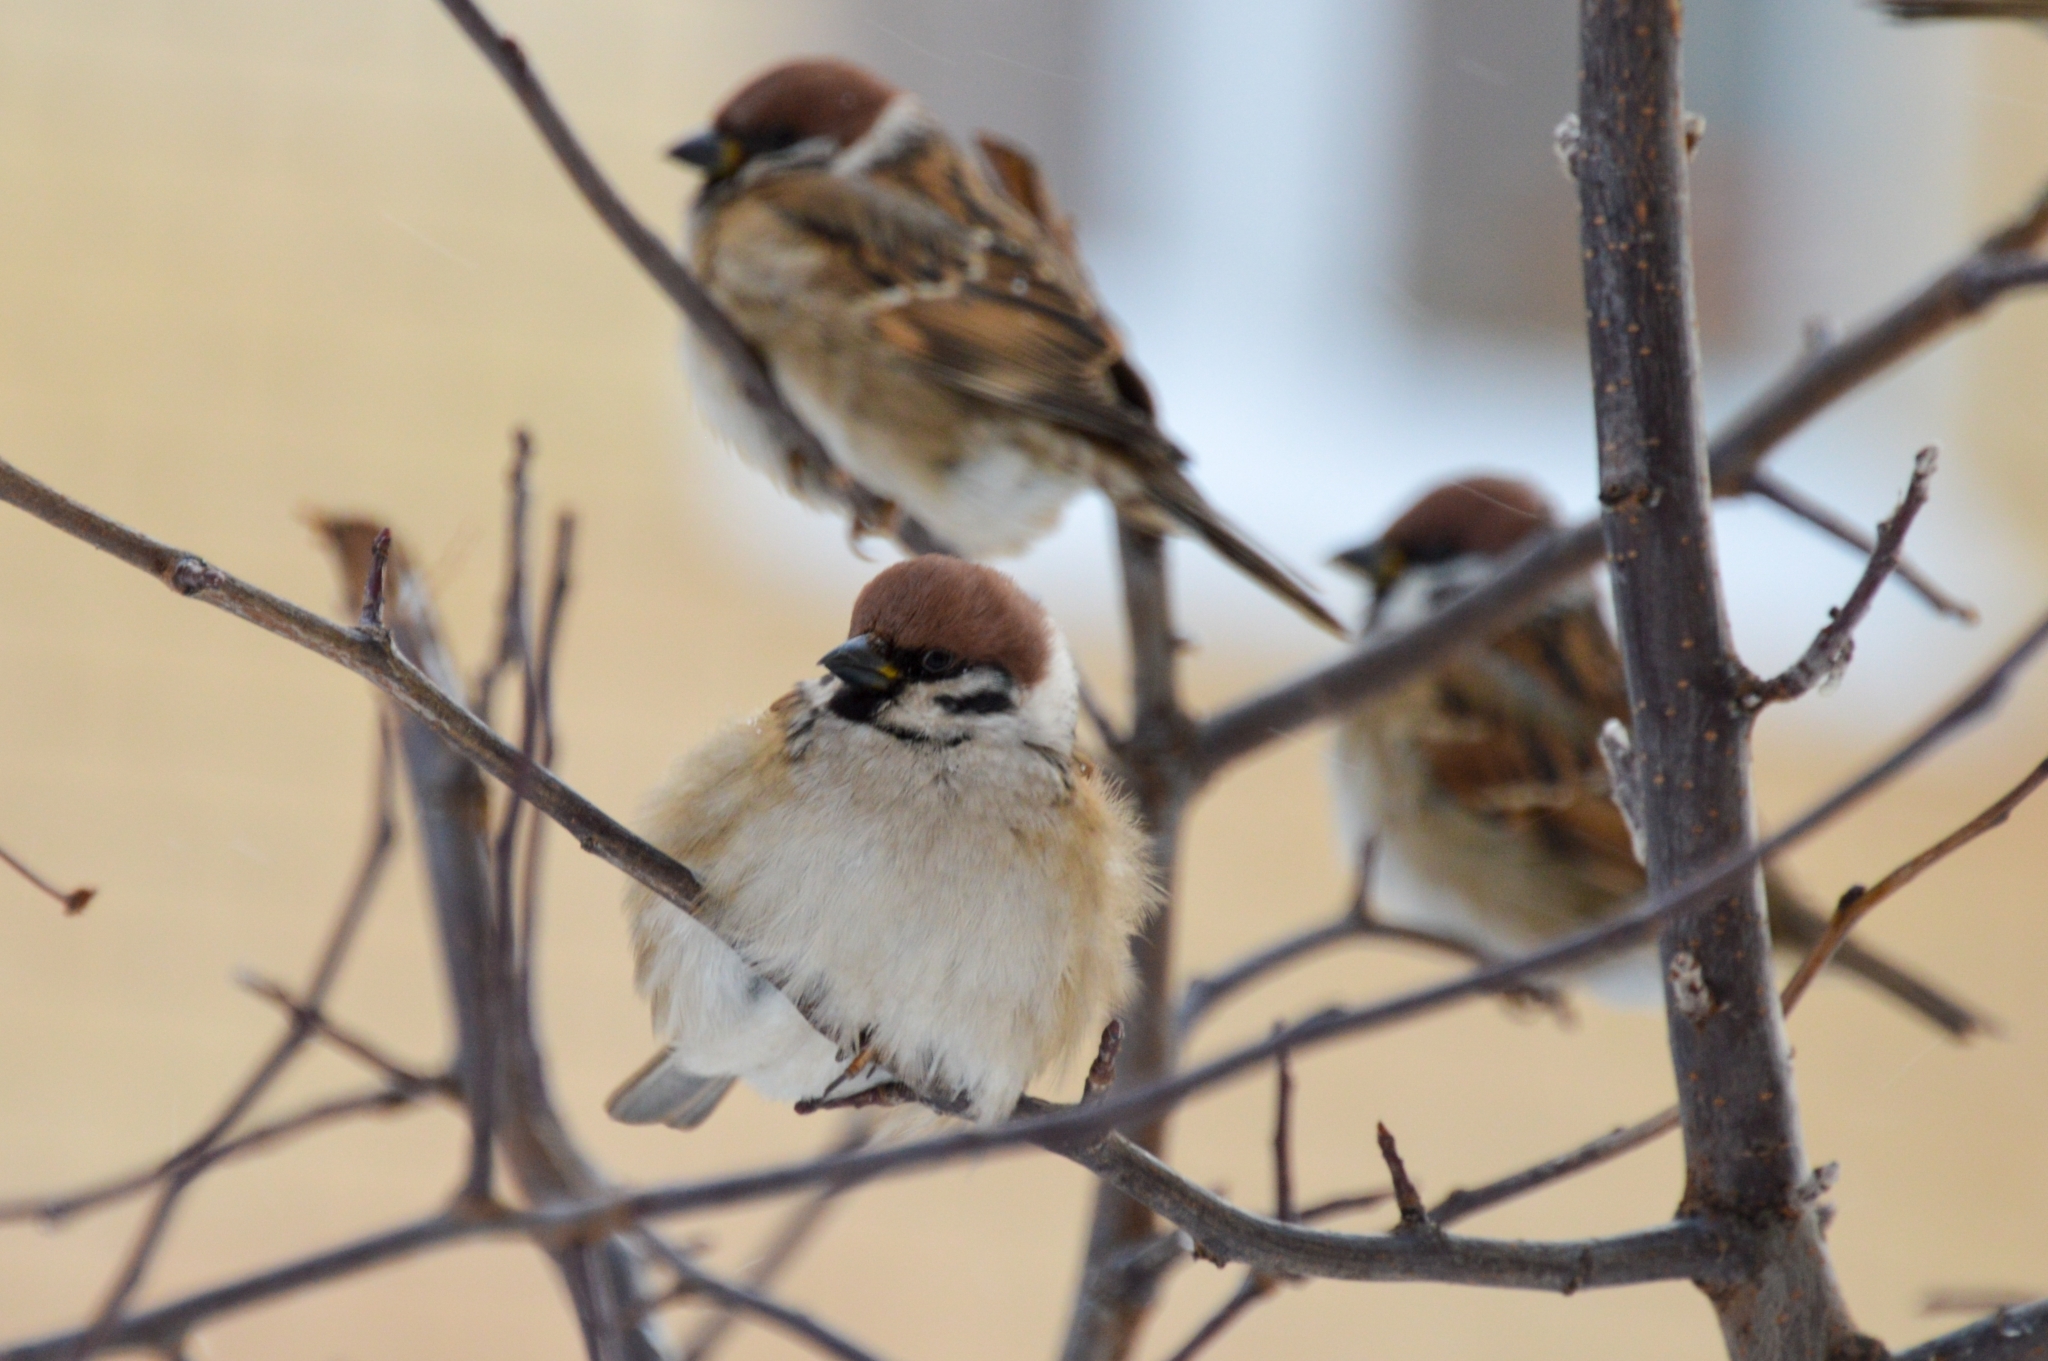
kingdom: Animalia
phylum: Chordata
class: Aves
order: Passeriformes
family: Passeridae
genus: Passer
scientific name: Passer montanus
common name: Eurasian tree sparrow
